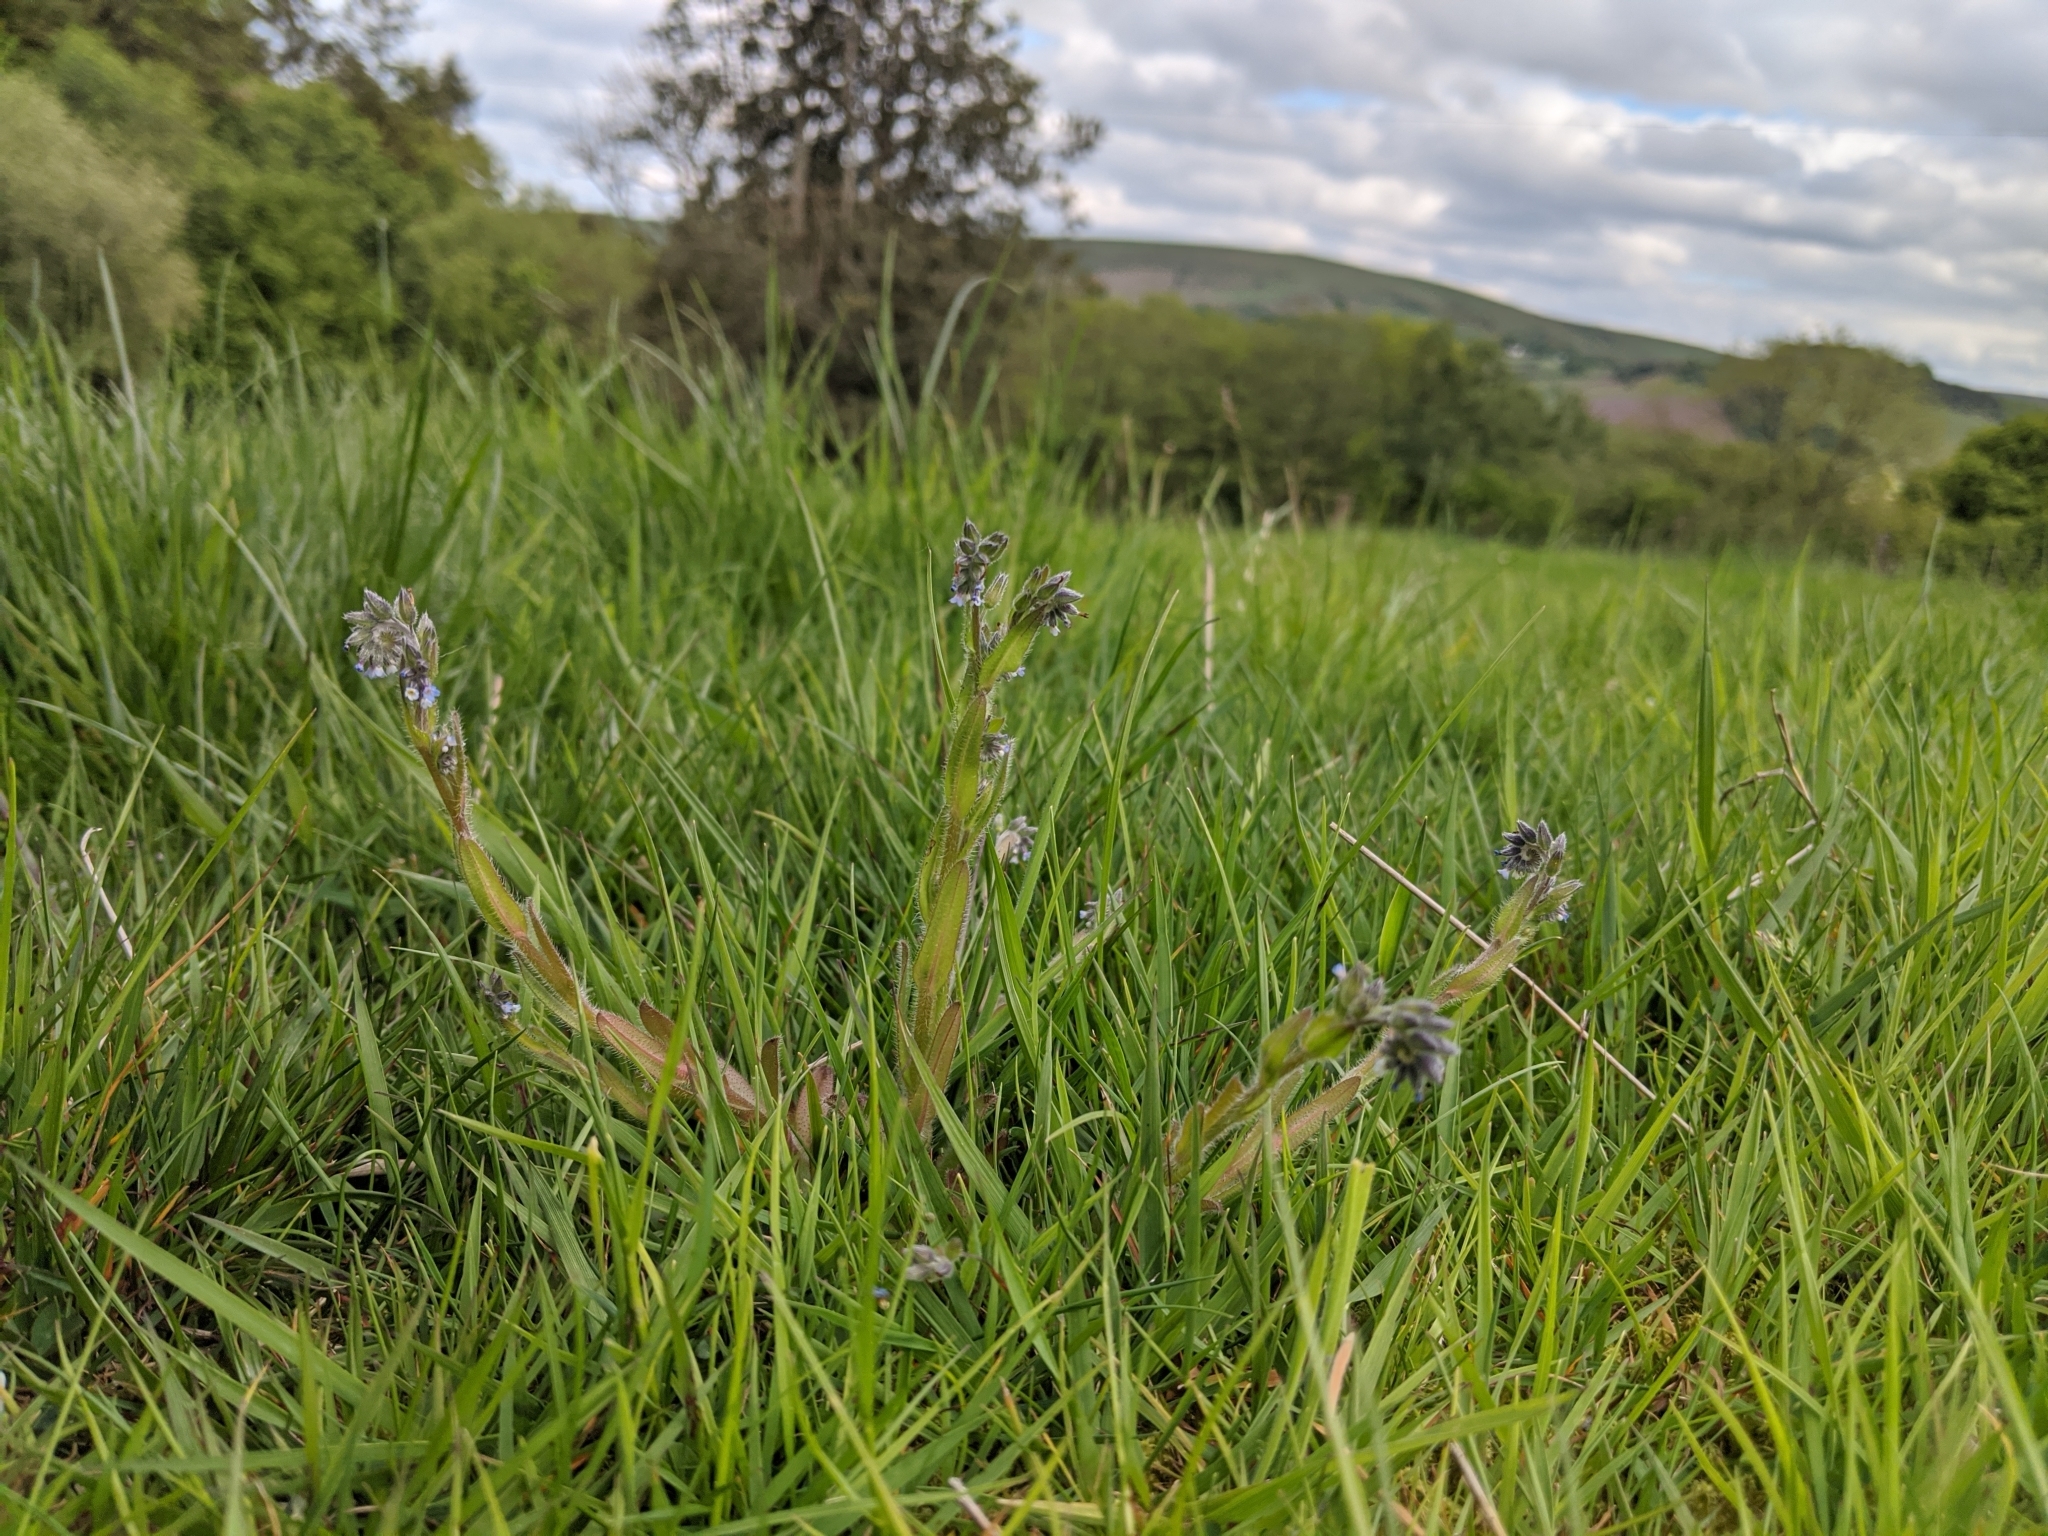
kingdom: Plantae
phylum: Tracheophyta
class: Magnoliopsida
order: Boraginales
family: Boraginaceae
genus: Myosotis
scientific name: Myosotis discolor
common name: Changing forget-me-not
